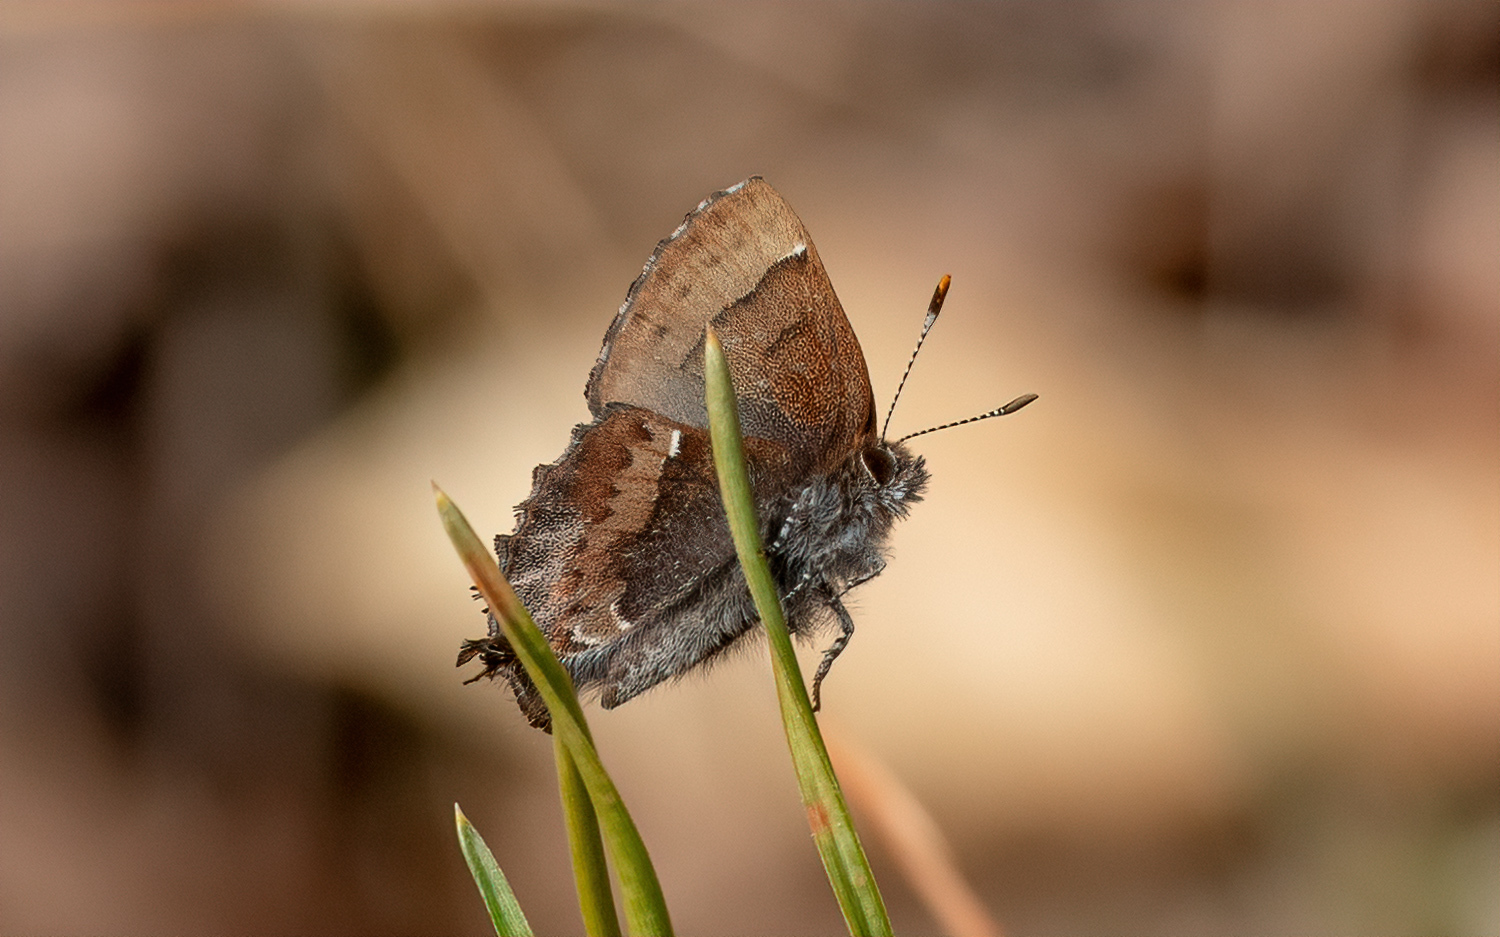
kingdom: Animalia
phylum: Arthropoda
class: Insecta
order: Lepidoptera
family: Lycaenidae
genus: Incisalia
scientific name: Incisalia henrici
